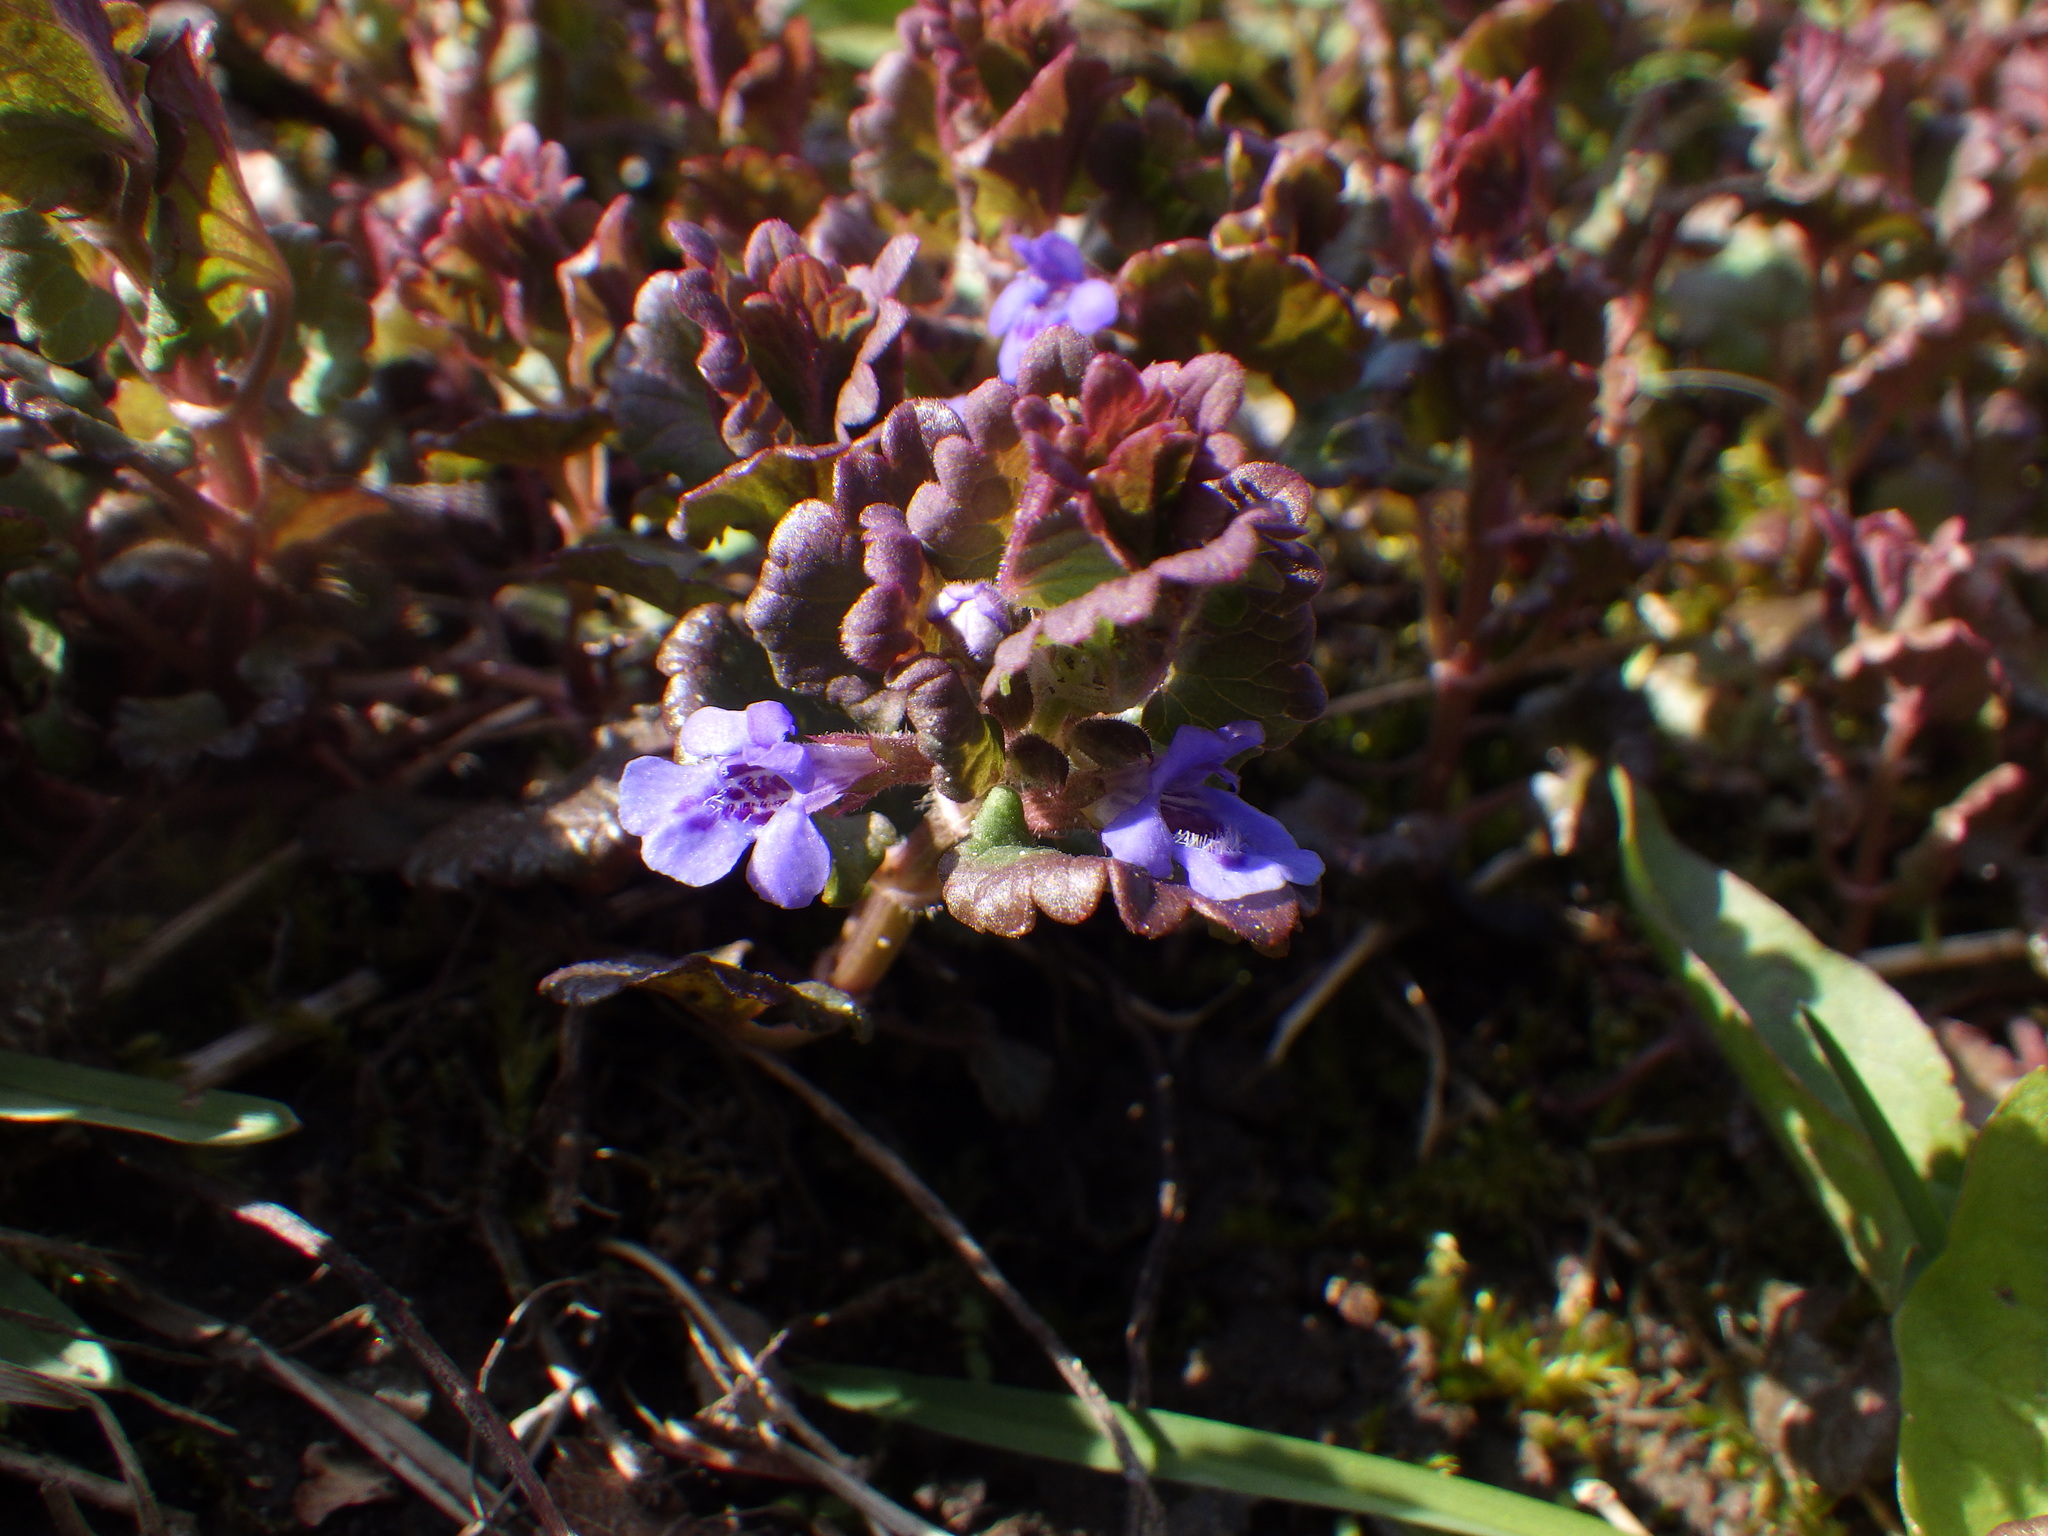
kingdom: Plantae
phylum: Tracheophyta
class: Magnoliopsida
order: Lamiales
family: Lamiaceae
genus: Glechoma
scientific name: Glechoma hederacea
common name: Ground ivy
